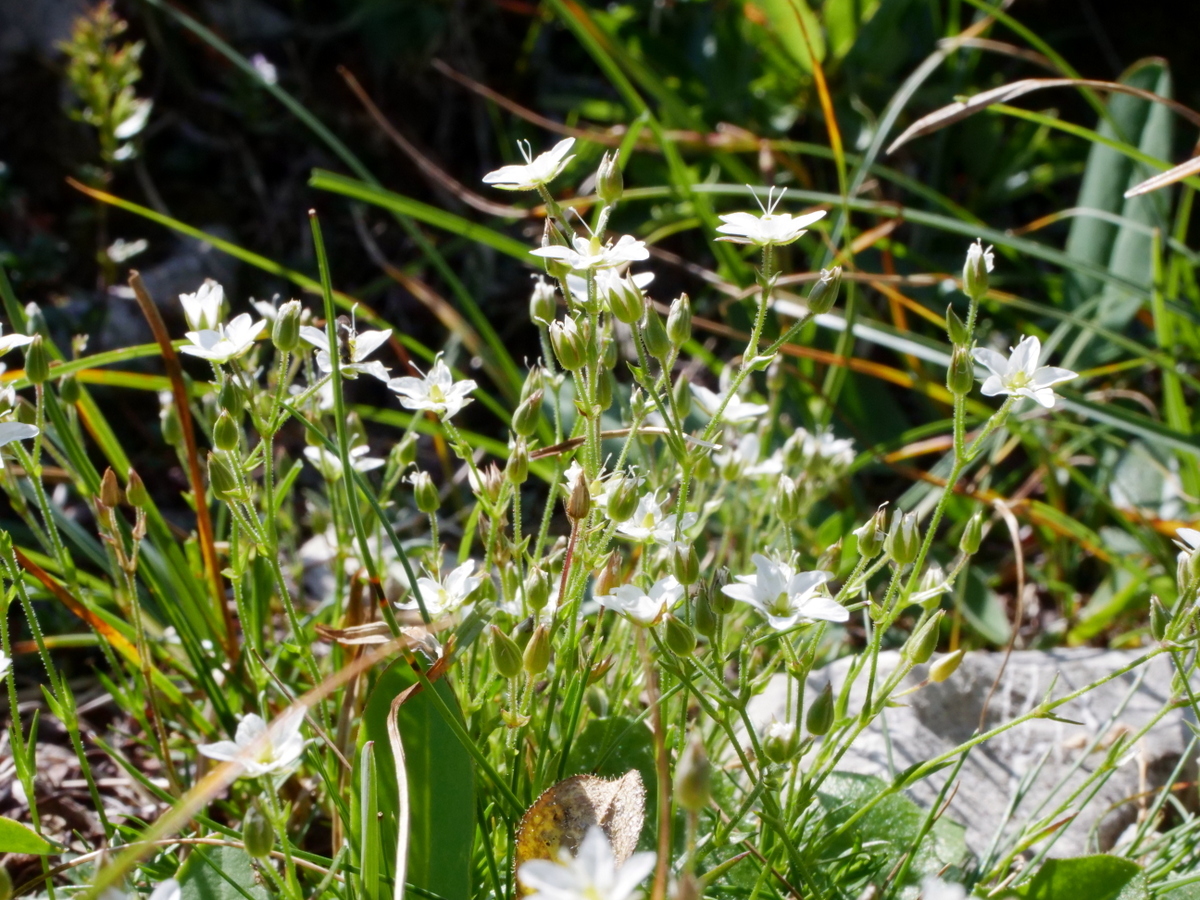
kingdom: Plantae
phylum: Tracheophyta
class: Magnoliopsida
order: Caryophyllales
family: Caryophyllaceae
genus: Sabulina
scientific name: Sabulina verna
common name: Spring sandwort
